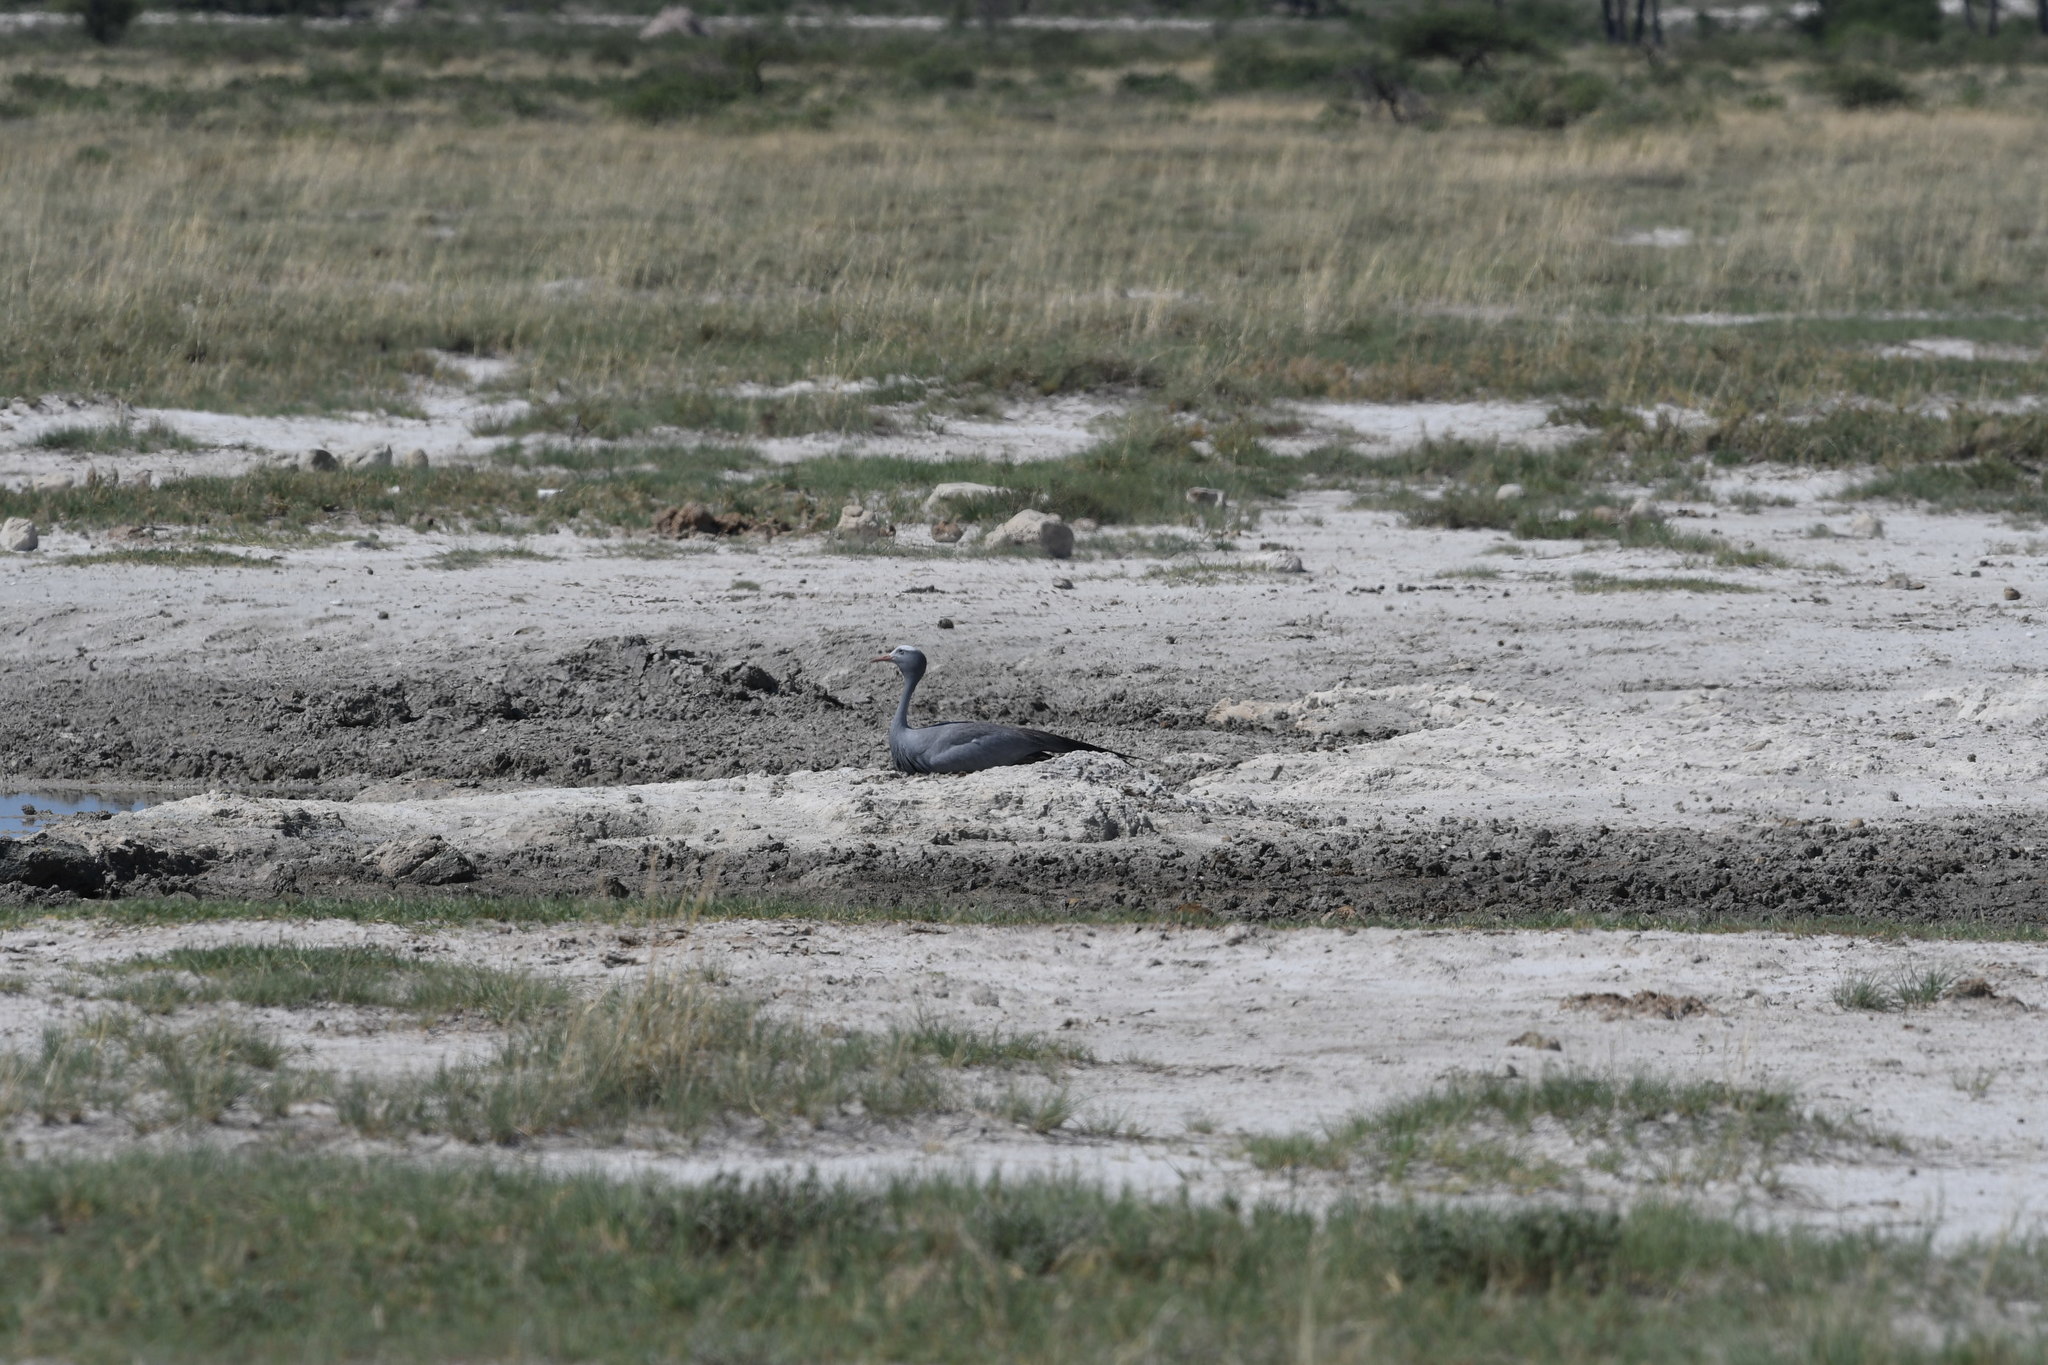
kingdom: Animalia
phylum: Chordata
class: Aves
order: Gruiformes
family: Gruidae
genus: Anthropoides
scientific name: Anthropoides paradiseus
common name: Blue crane
